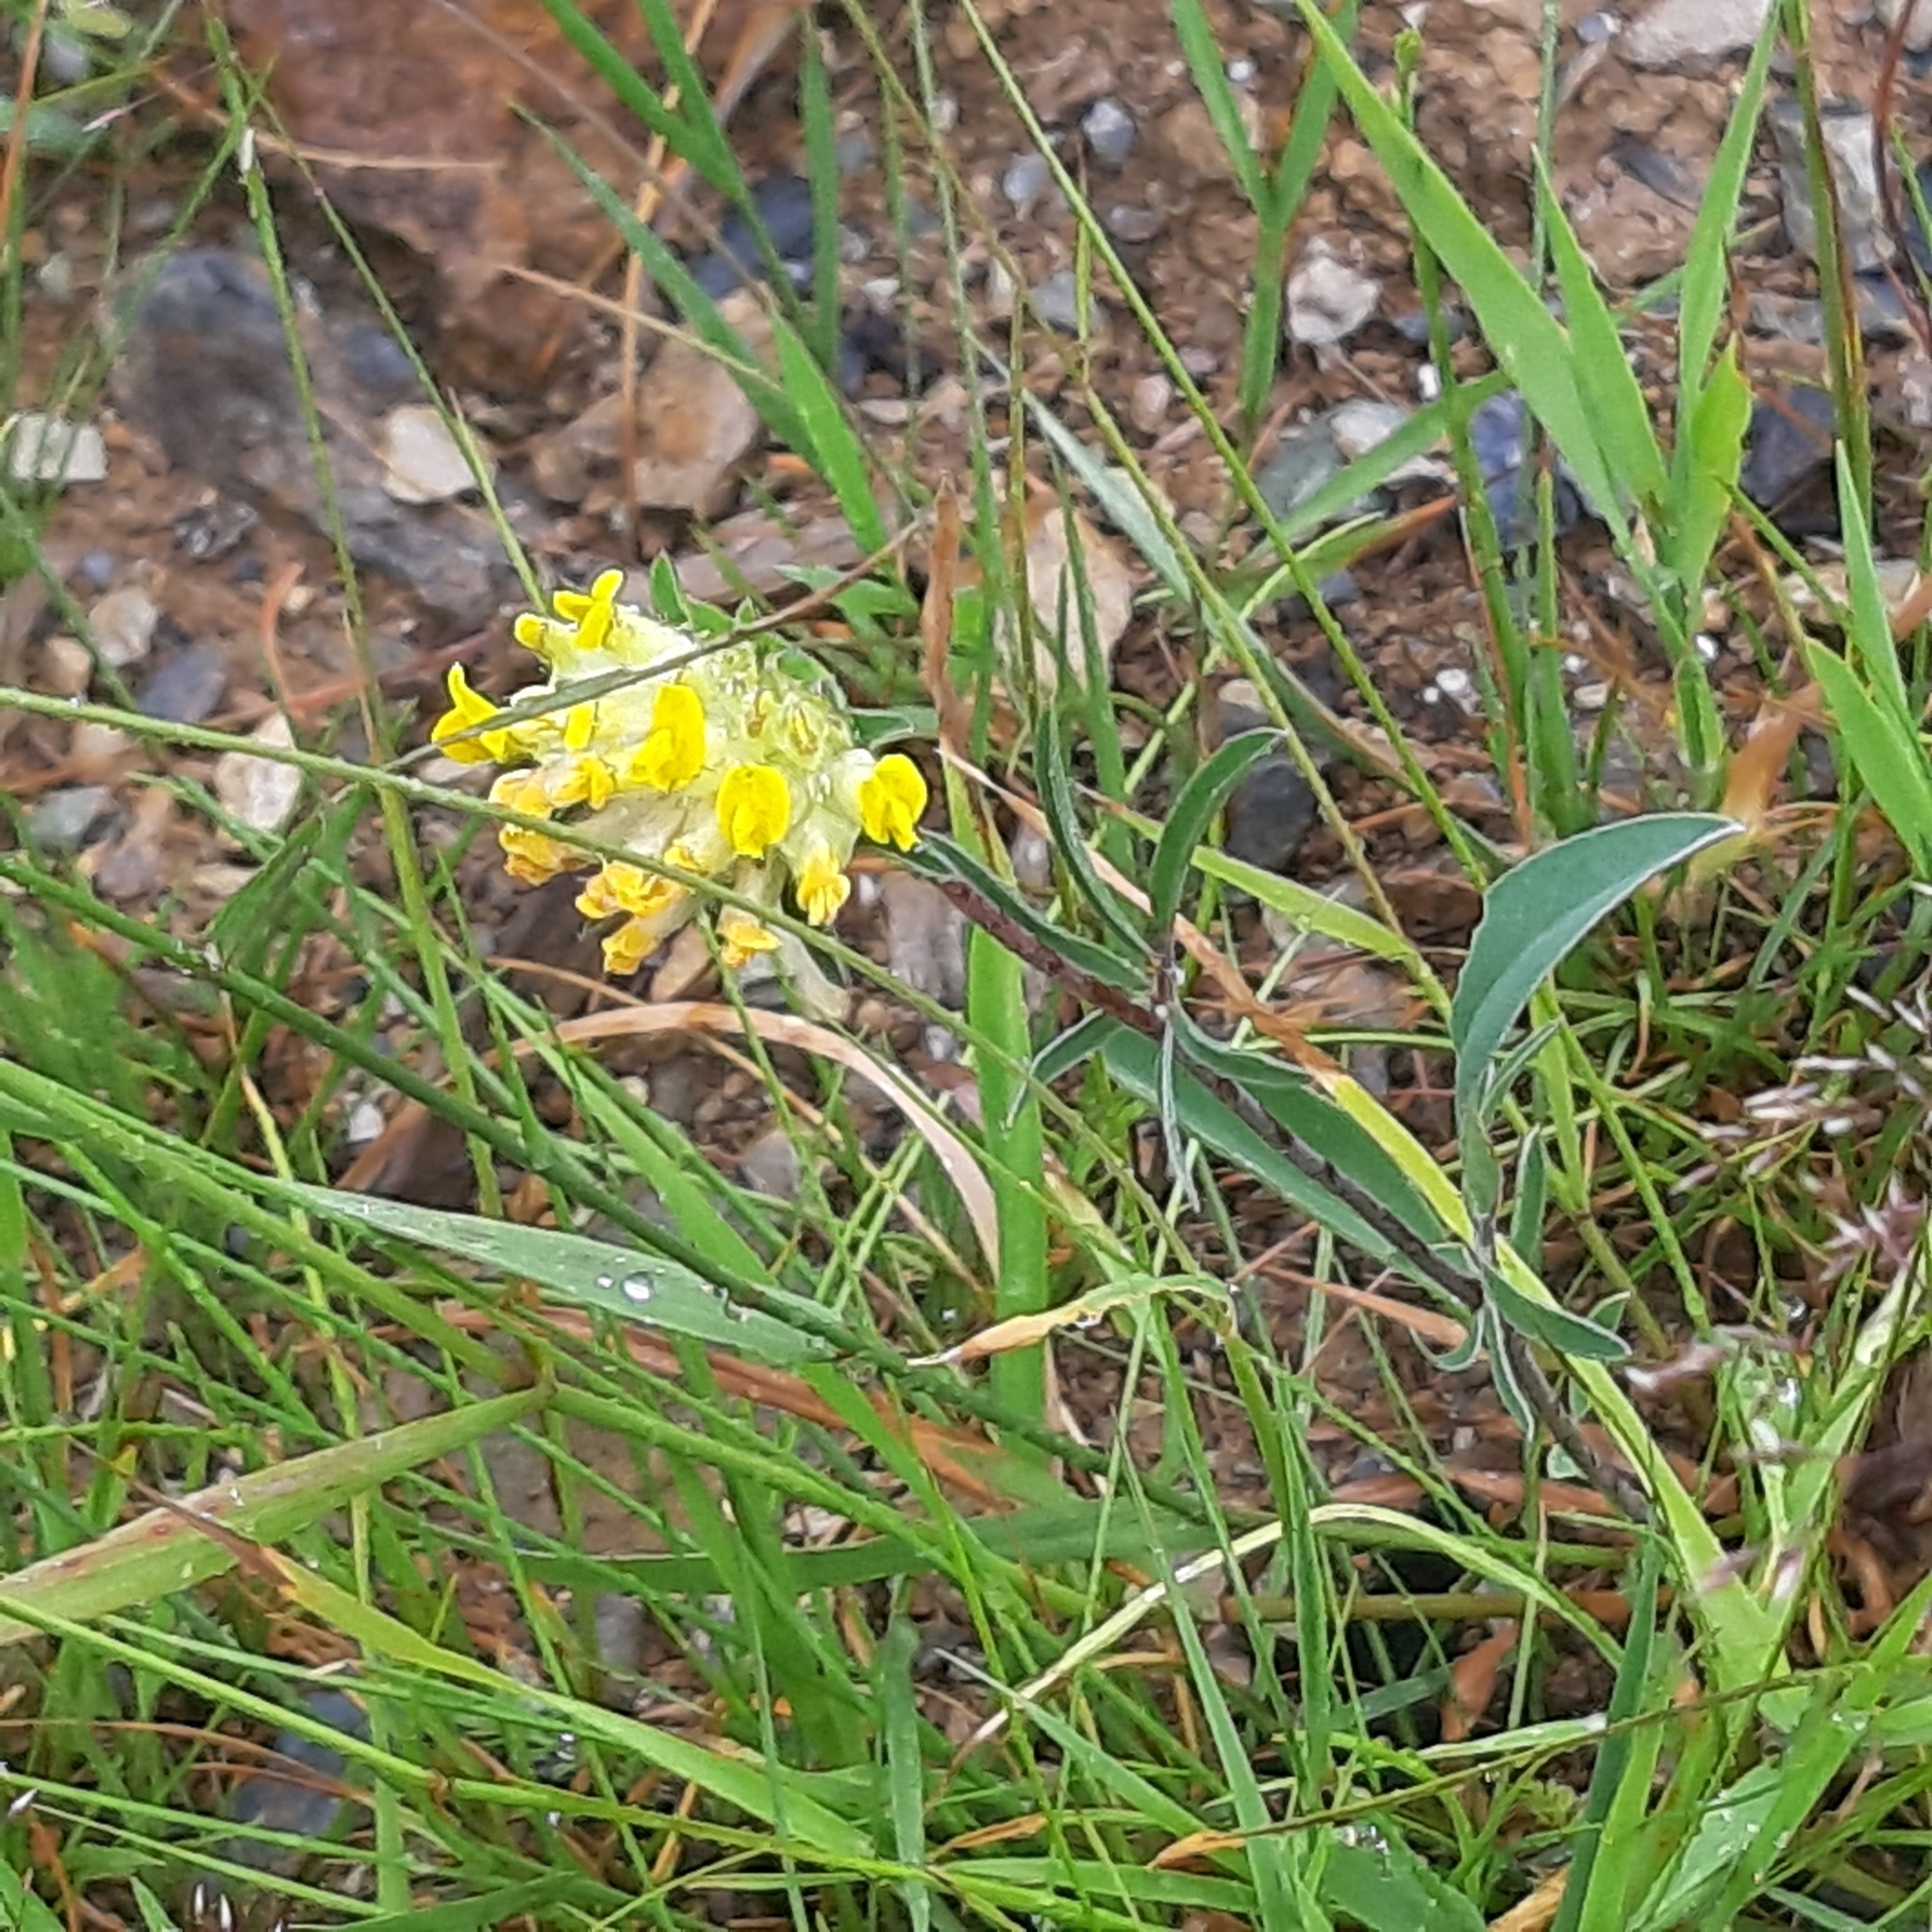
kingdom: Plantae
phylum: Tracheophyta
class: Magnoliopsida
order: Fabales
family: Fabaceae
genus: Anthyllis
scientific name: Anthyllis vulneraria
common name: Kidney vetch
